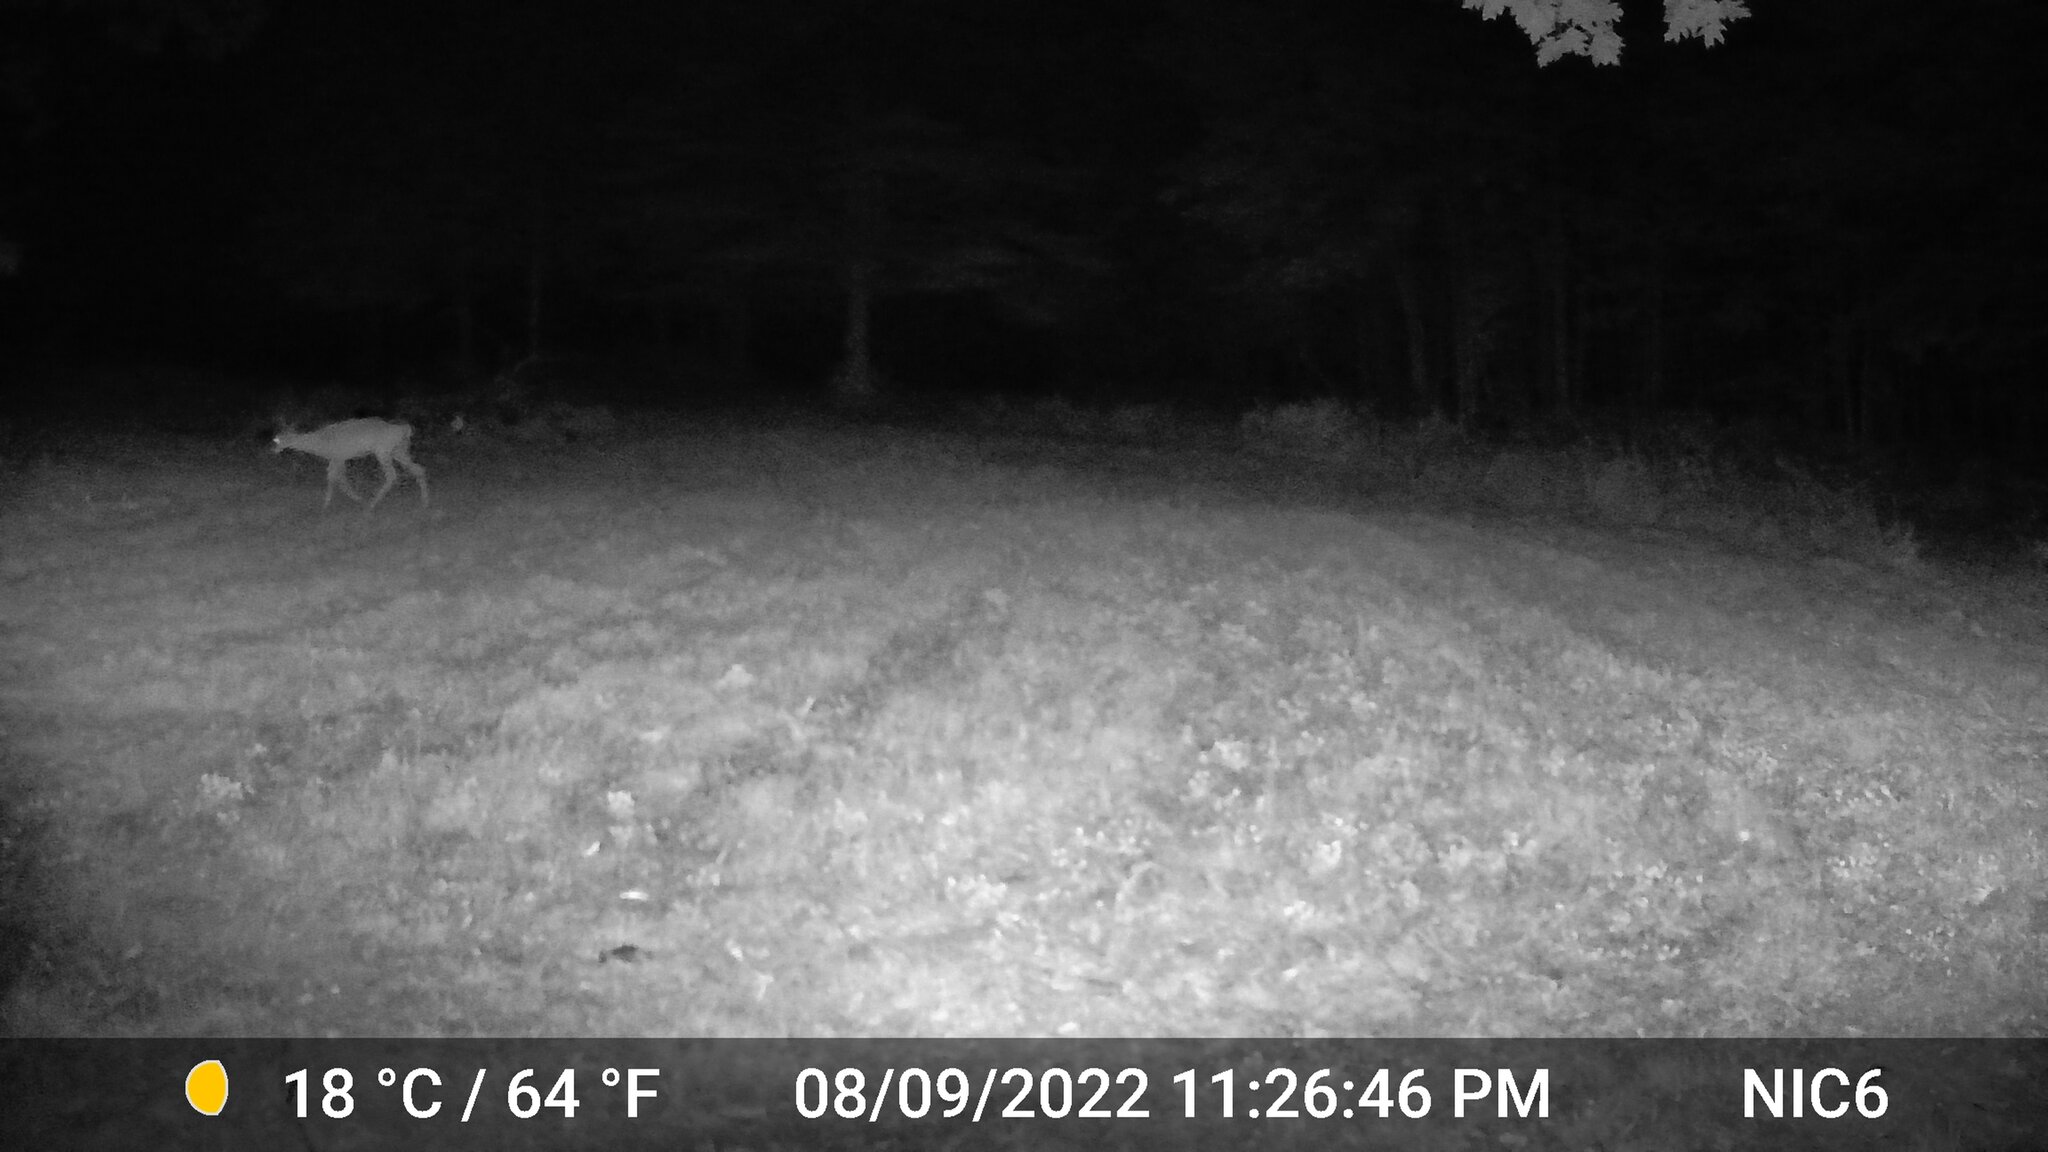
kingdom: Animalia
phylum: Chordata
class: Mammalia
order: Artiodactyla
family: Cervidae
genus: Odocoileus
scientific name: Odocoileus virginianus
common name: White-tailed deer
